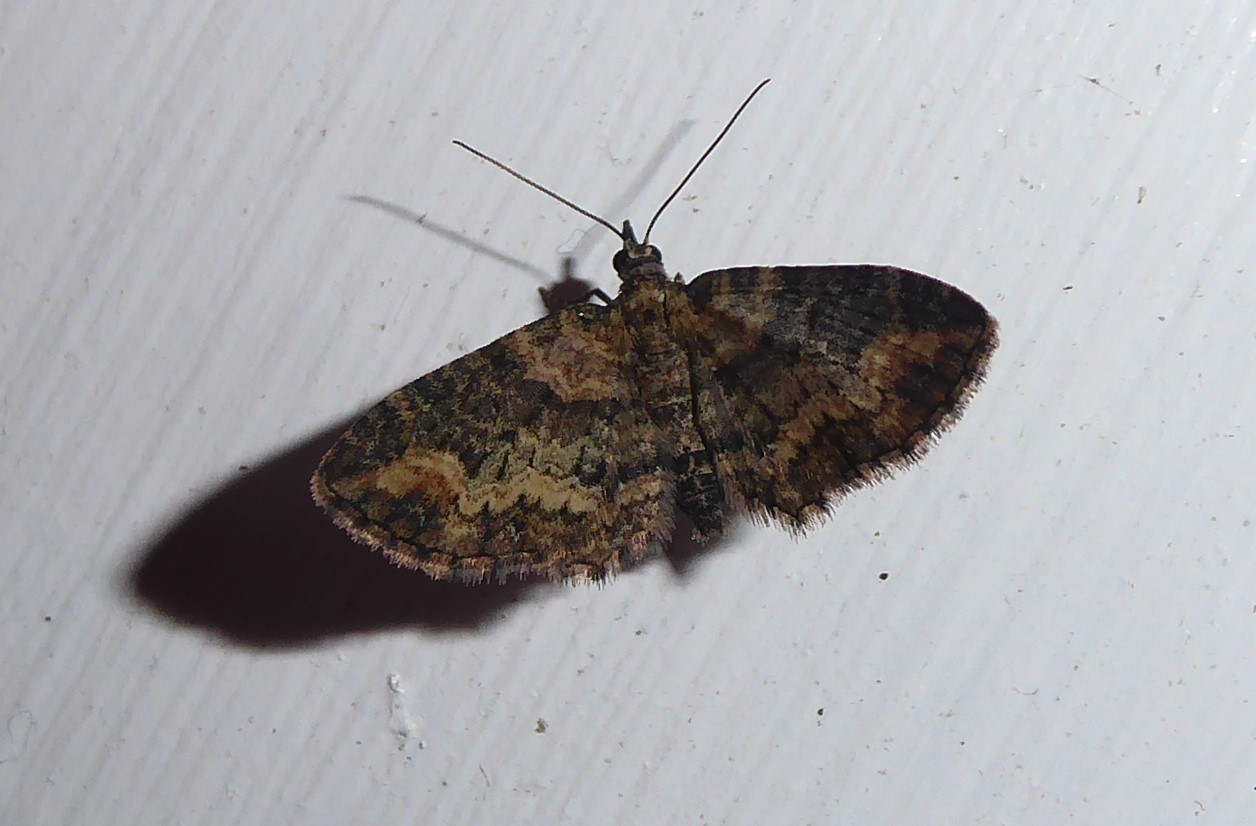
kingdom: Animalia
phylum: Arthropoda
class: Insecta
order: Lepidoptera
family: Geometridae
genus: Idaea
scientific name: Idaea mutanda
